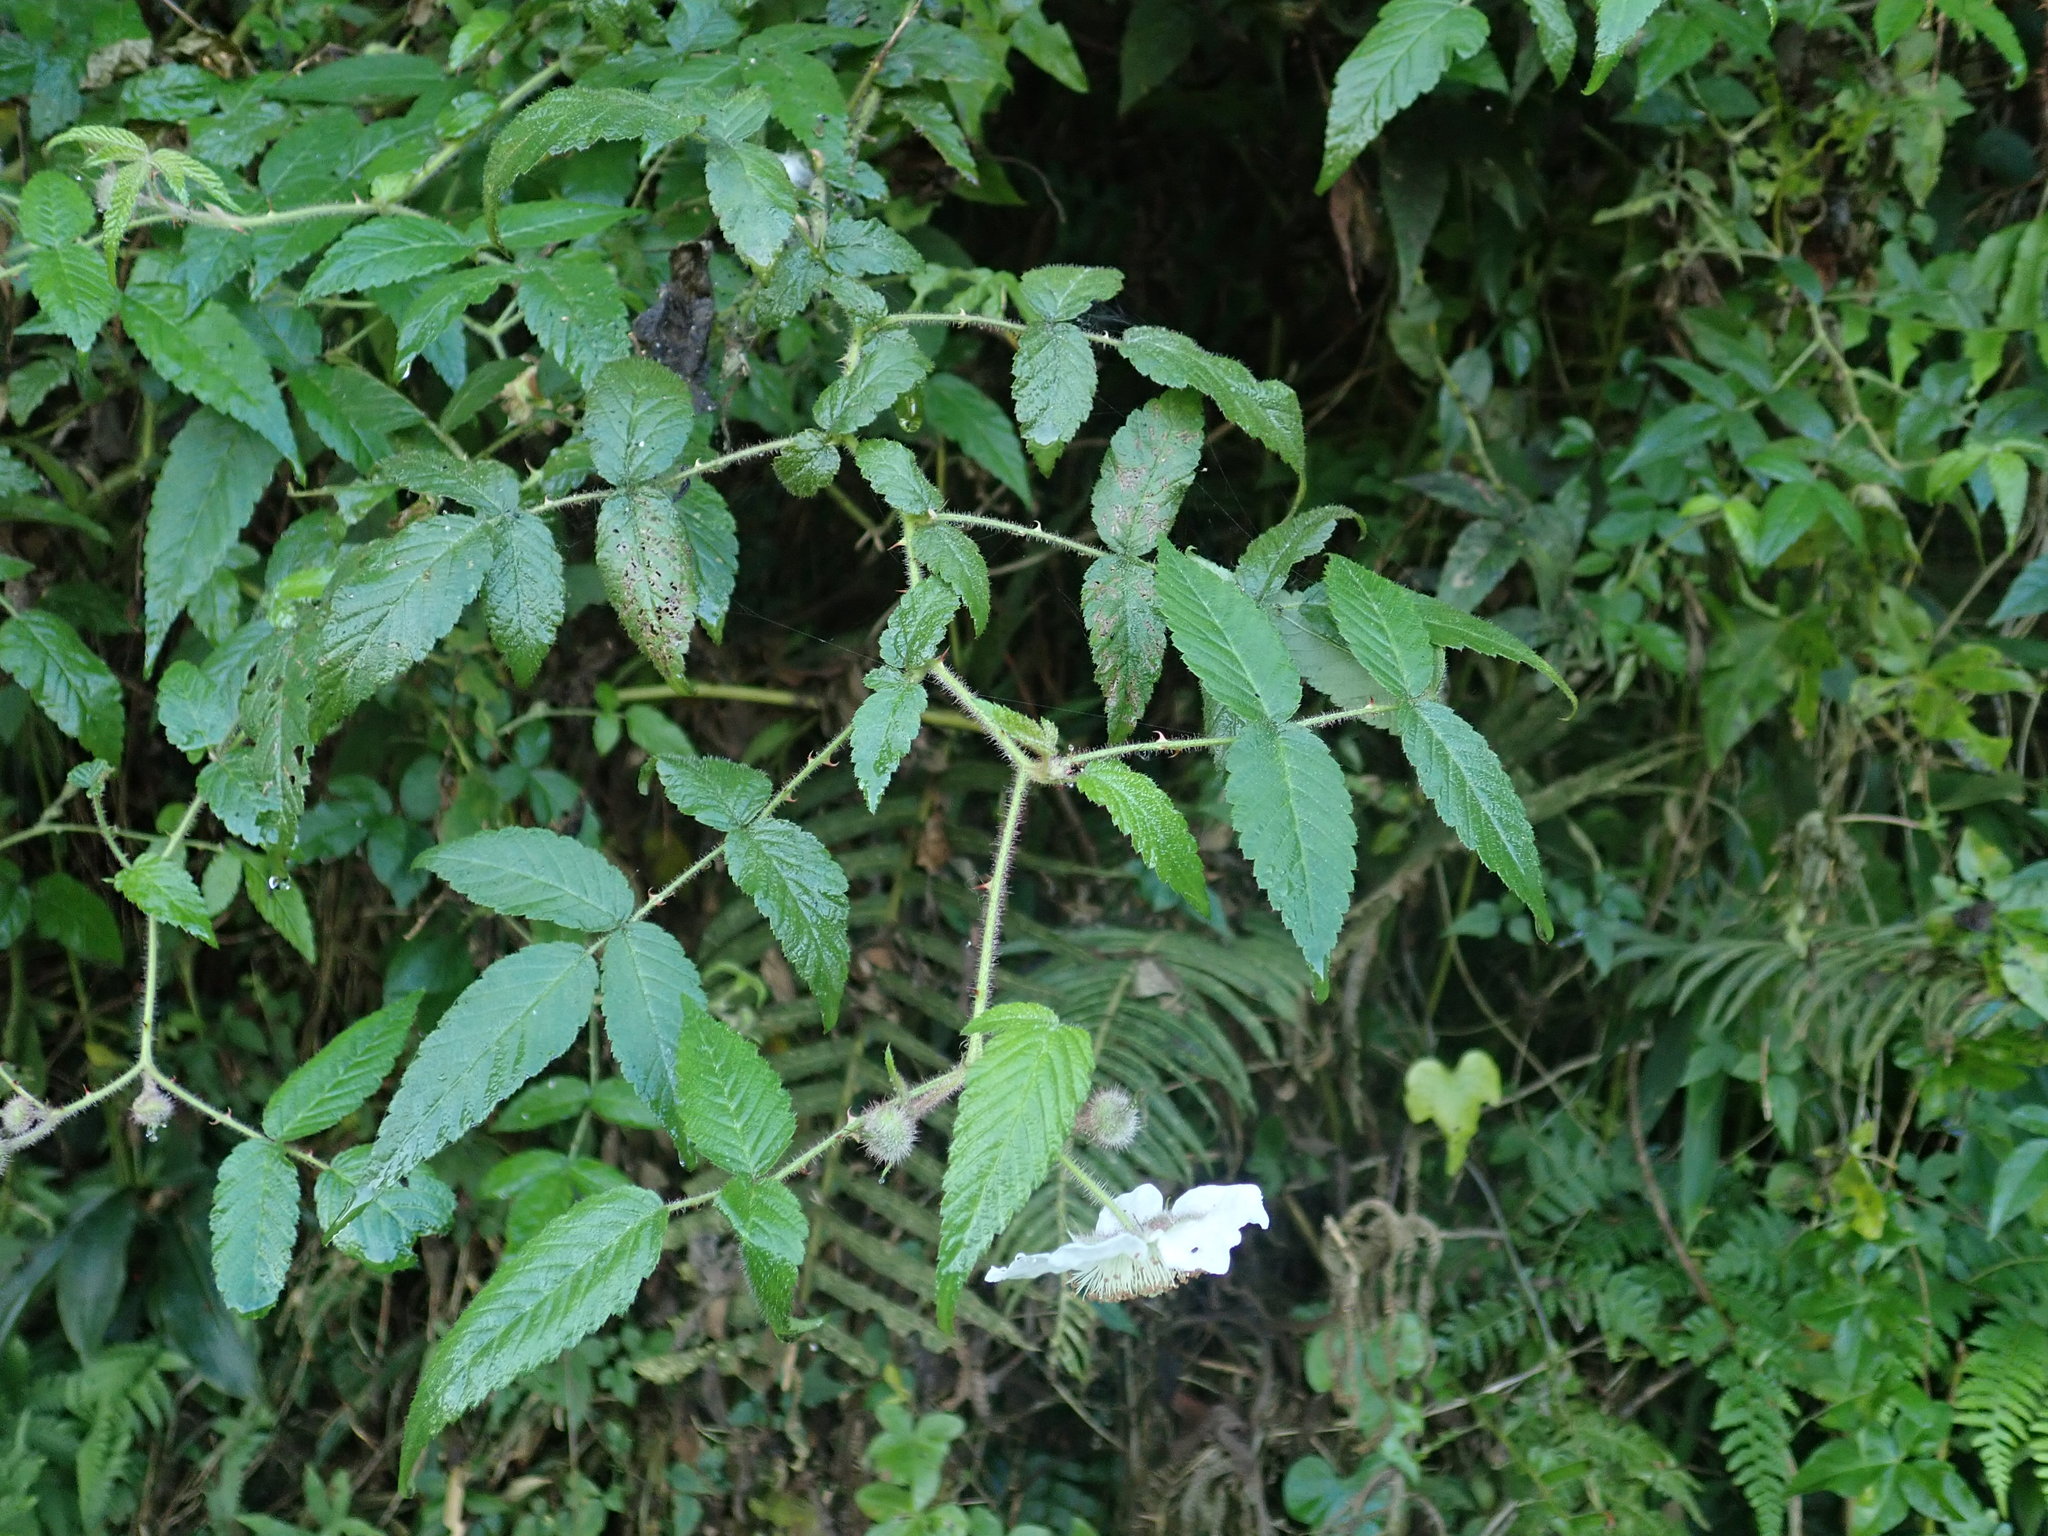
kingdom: Plantae
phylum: Tracheophyta
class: Magnoliopsida
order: Rosales
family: Rosaceae
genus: Rubus
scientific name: Rubus croceacanthus
